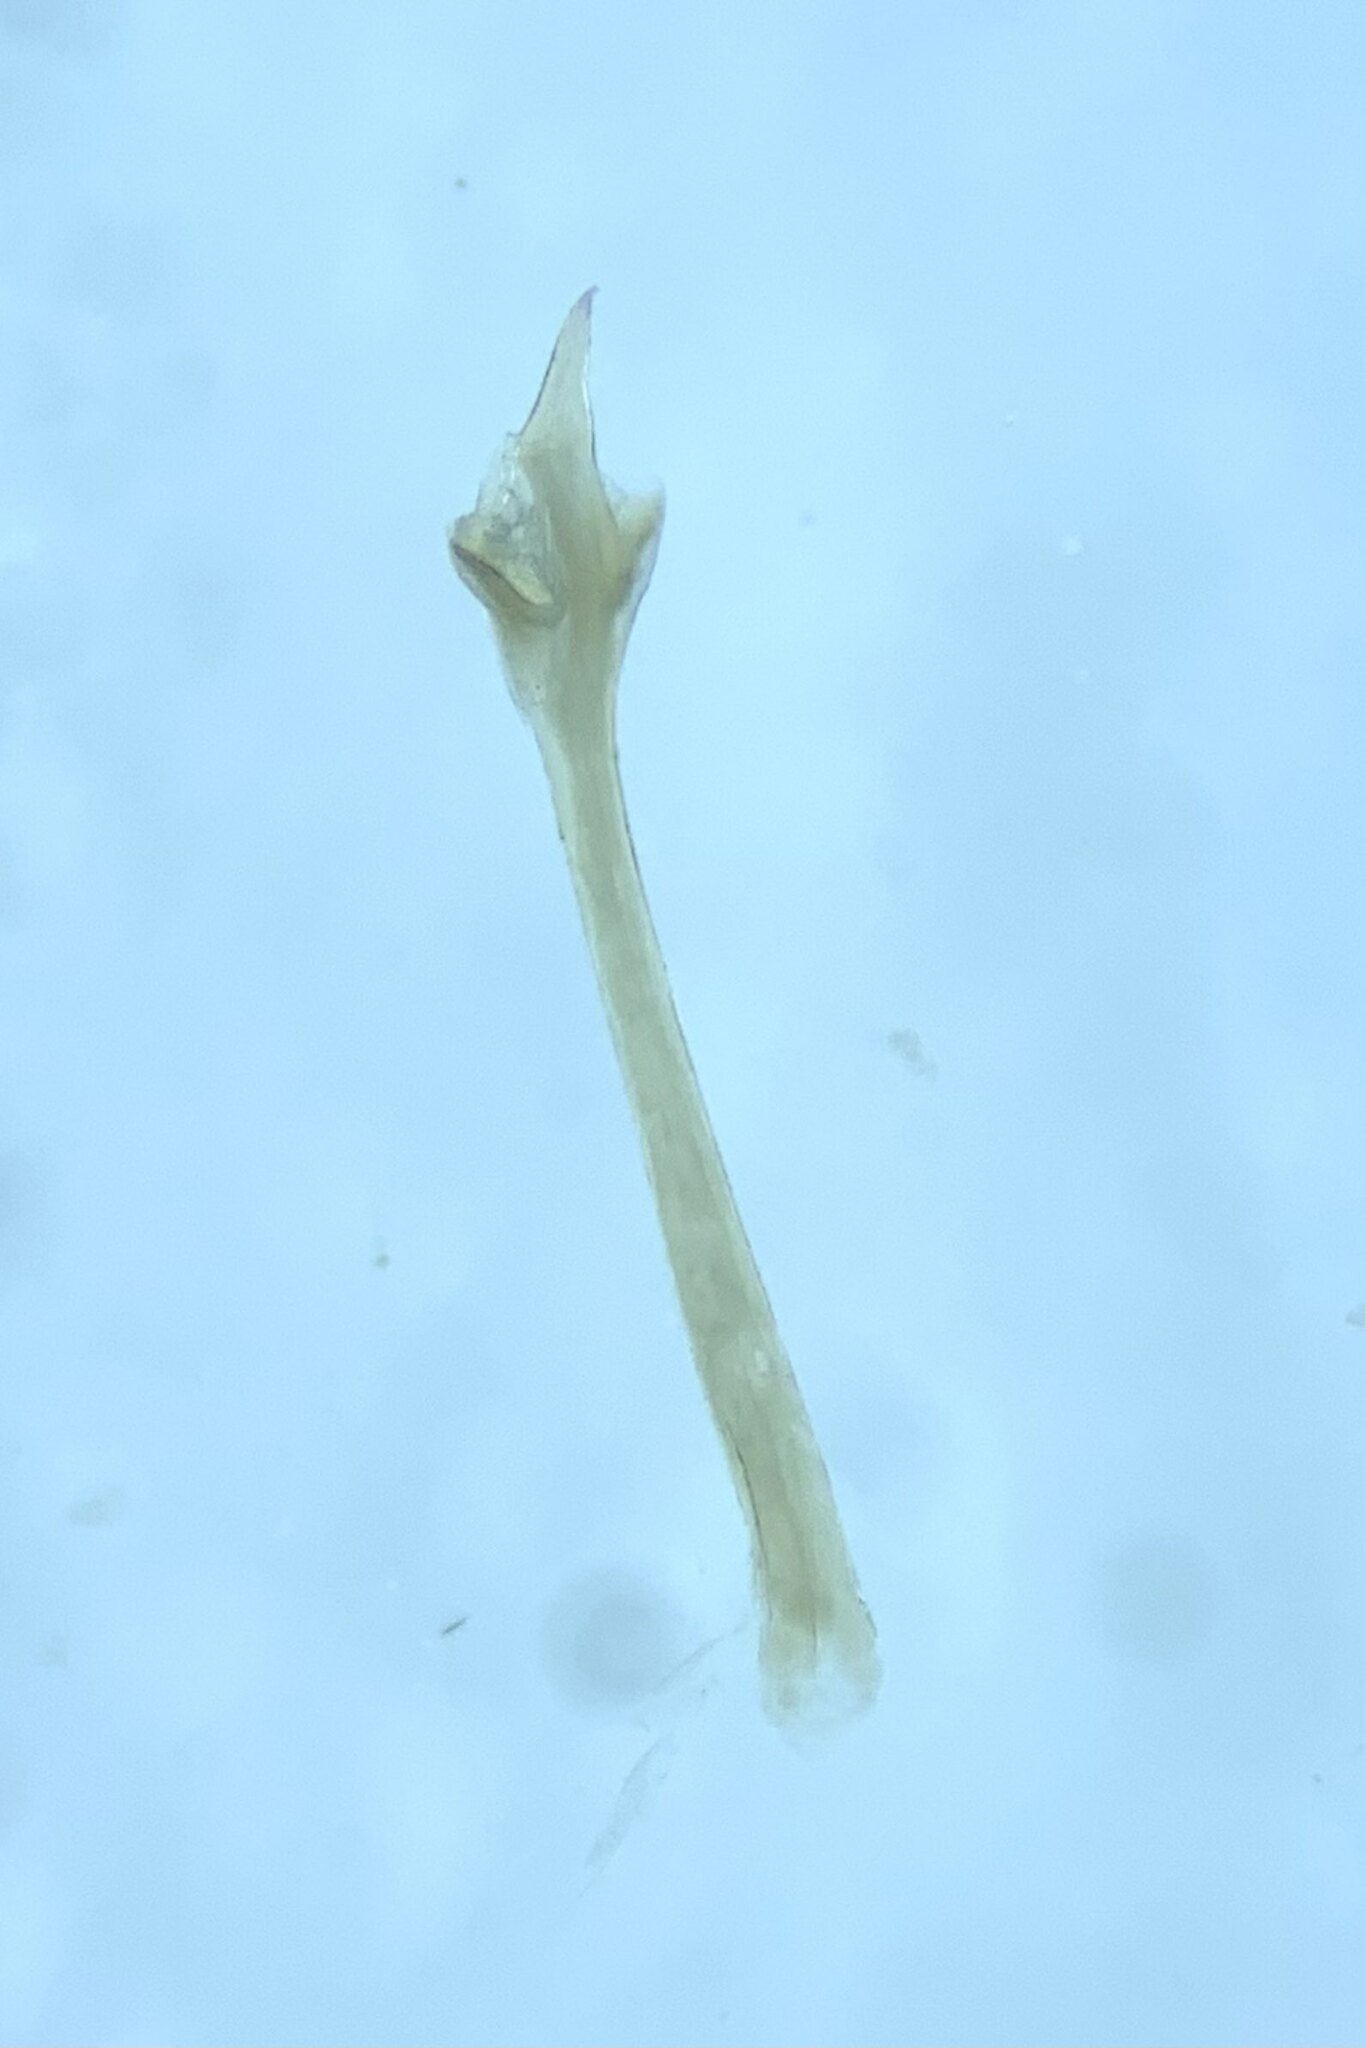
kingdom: Animalia
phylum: Arthropoda
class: Arachnida
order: Opiliones
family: Sclerosomatidae
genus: Nelima
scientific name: Nelima doriae
